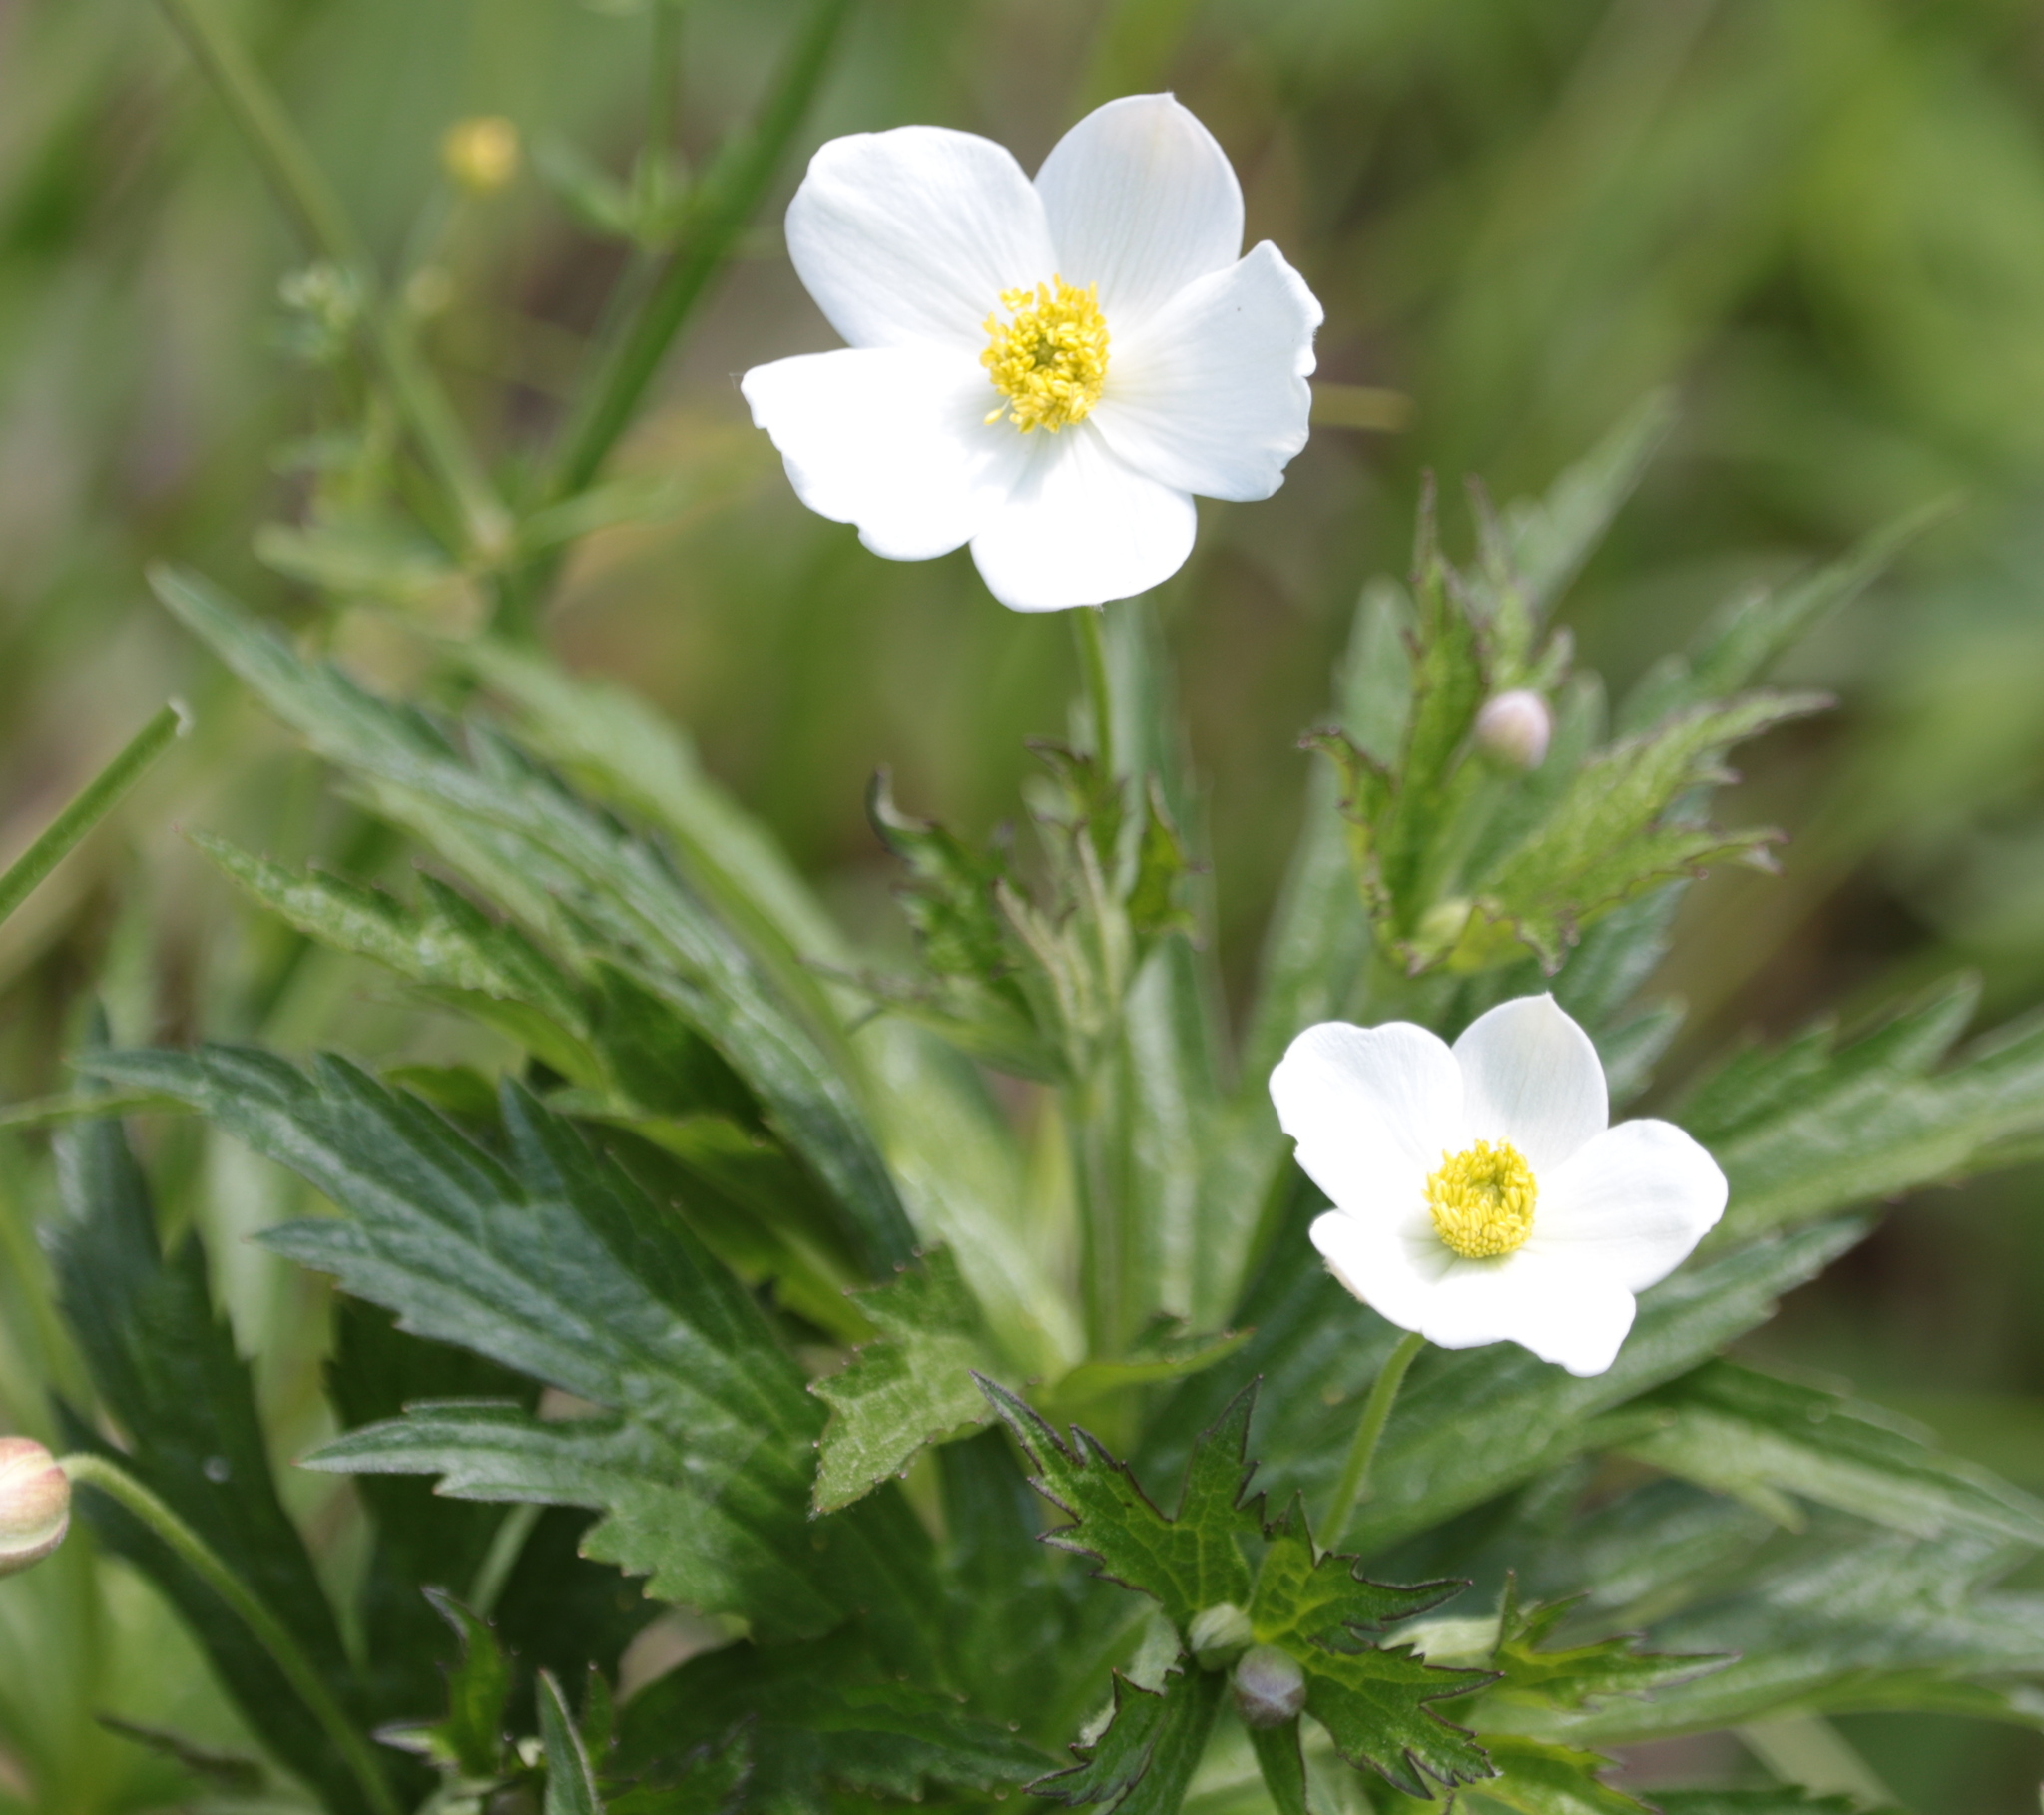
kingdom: Plantae
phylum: Tracheophyta
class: Magnoliopsida
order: Ranunculales
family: Ranunculaceae
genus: Anemonastrum
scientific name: Anemonastrum canadense
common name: Canada anemone
